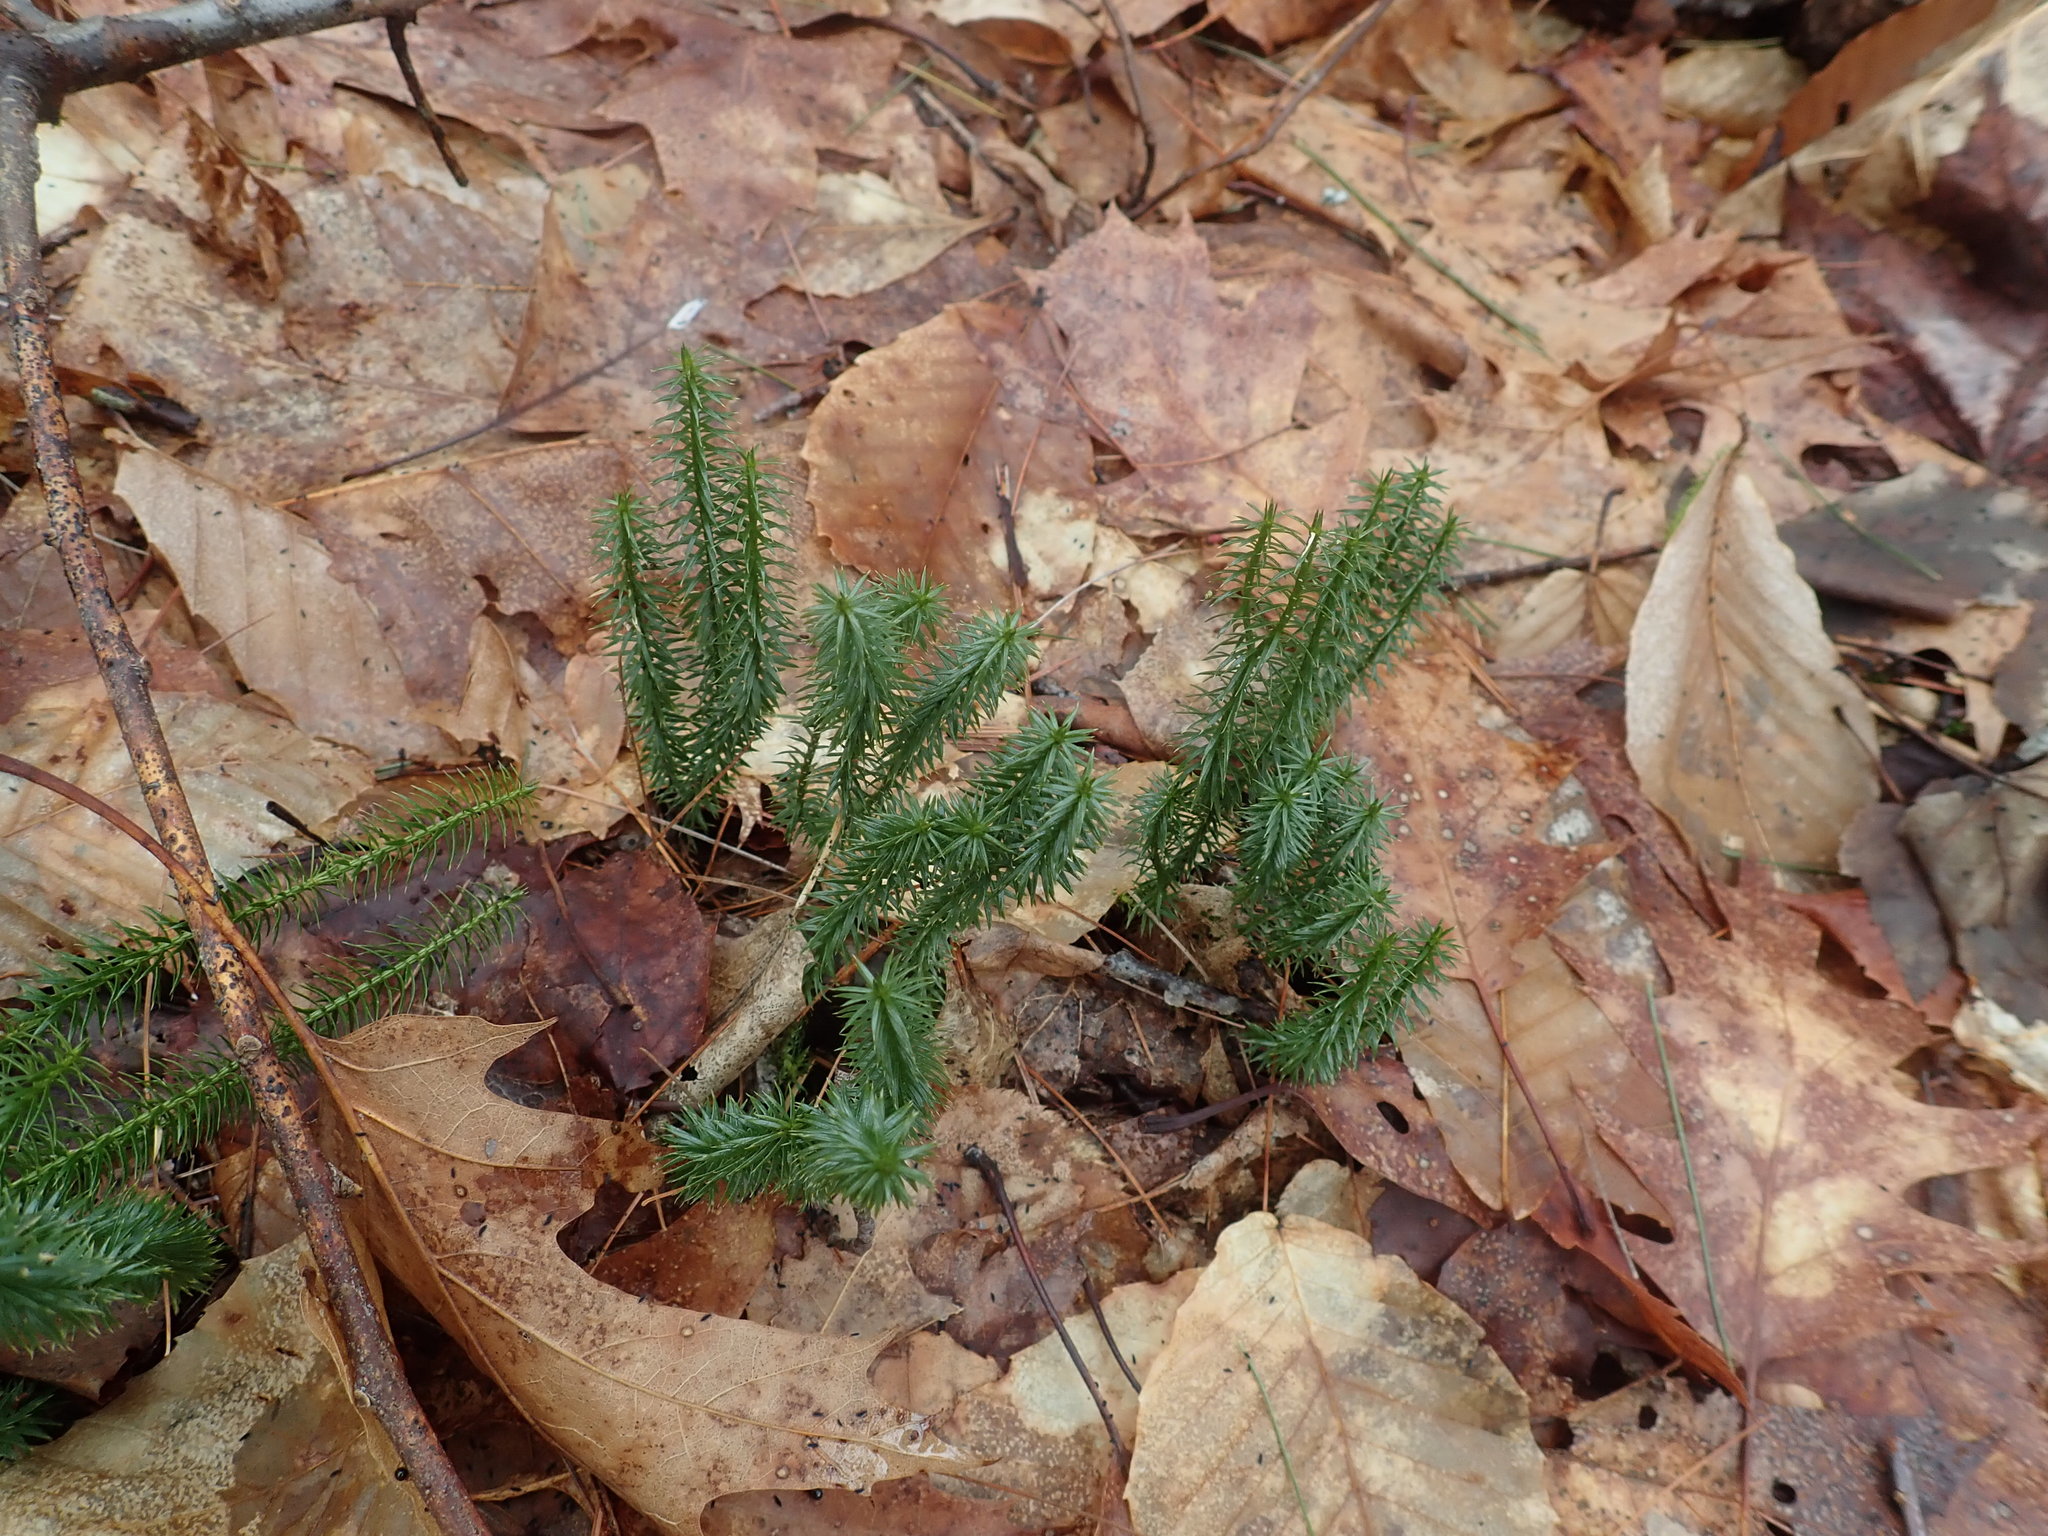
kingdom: Plantae
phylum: Tracheophyta
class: Lycopodiopsida
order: Lycopodiales
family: Lycopodiaceae
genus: Spinulum
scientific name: Spinulum annotinum
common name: Interrupted club-moss
